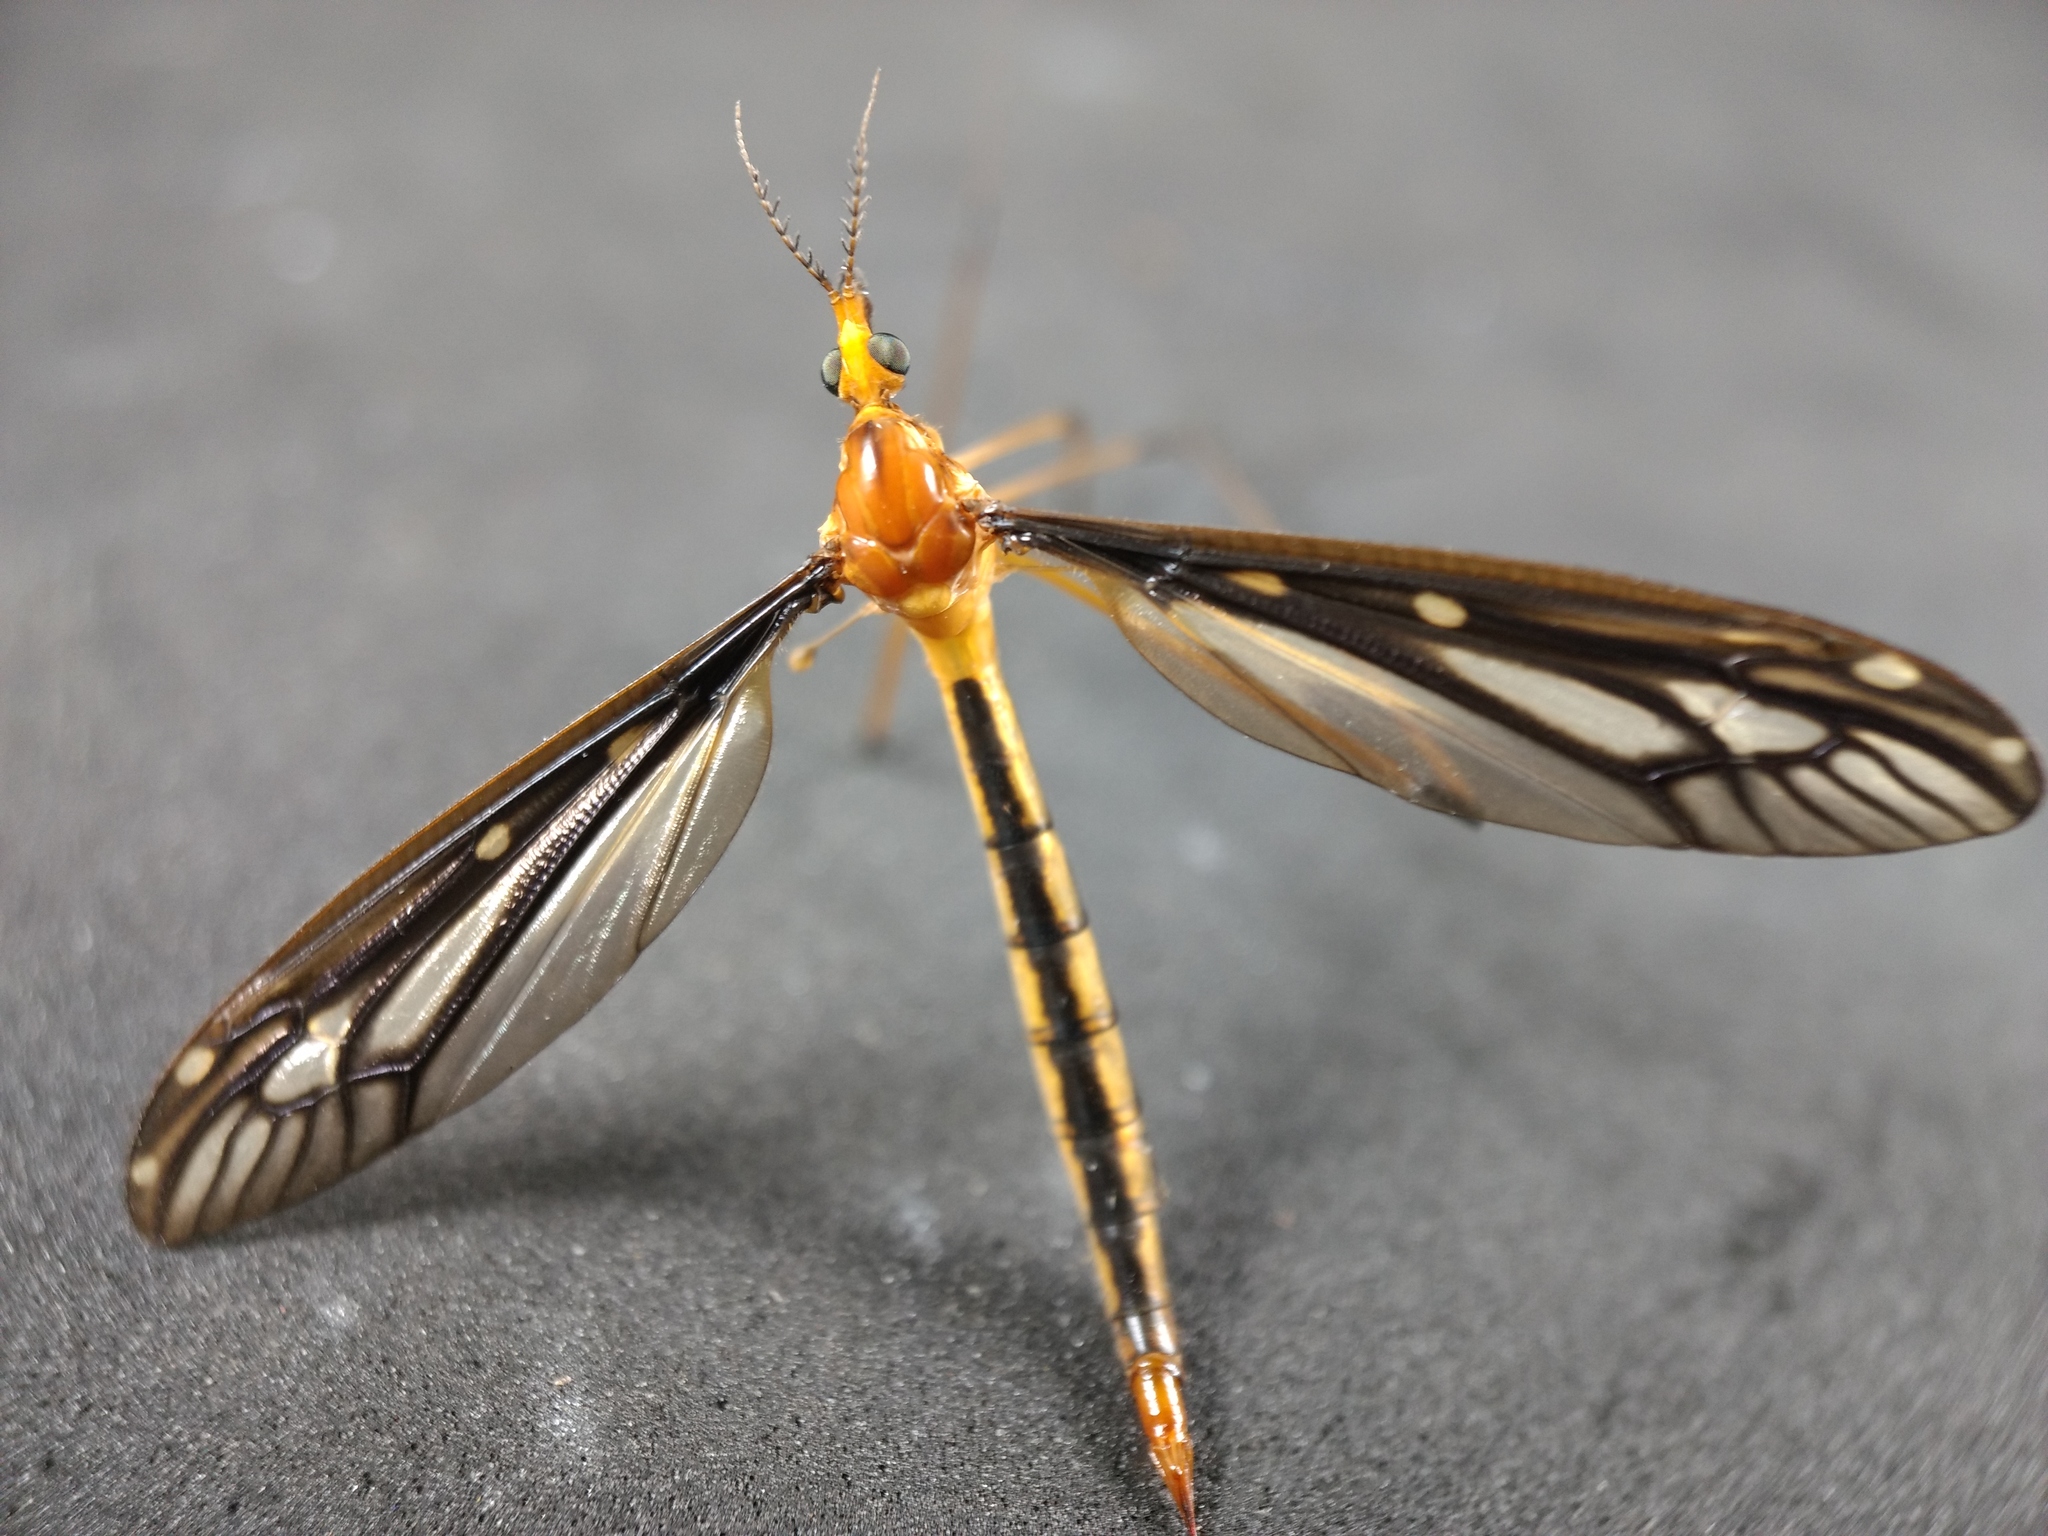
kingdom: Animalia
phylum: Arthropoda
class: Insecta
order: Diptera
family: Tipulidae
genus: Ptilogyna
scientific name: Ptilogyna ramicornis
